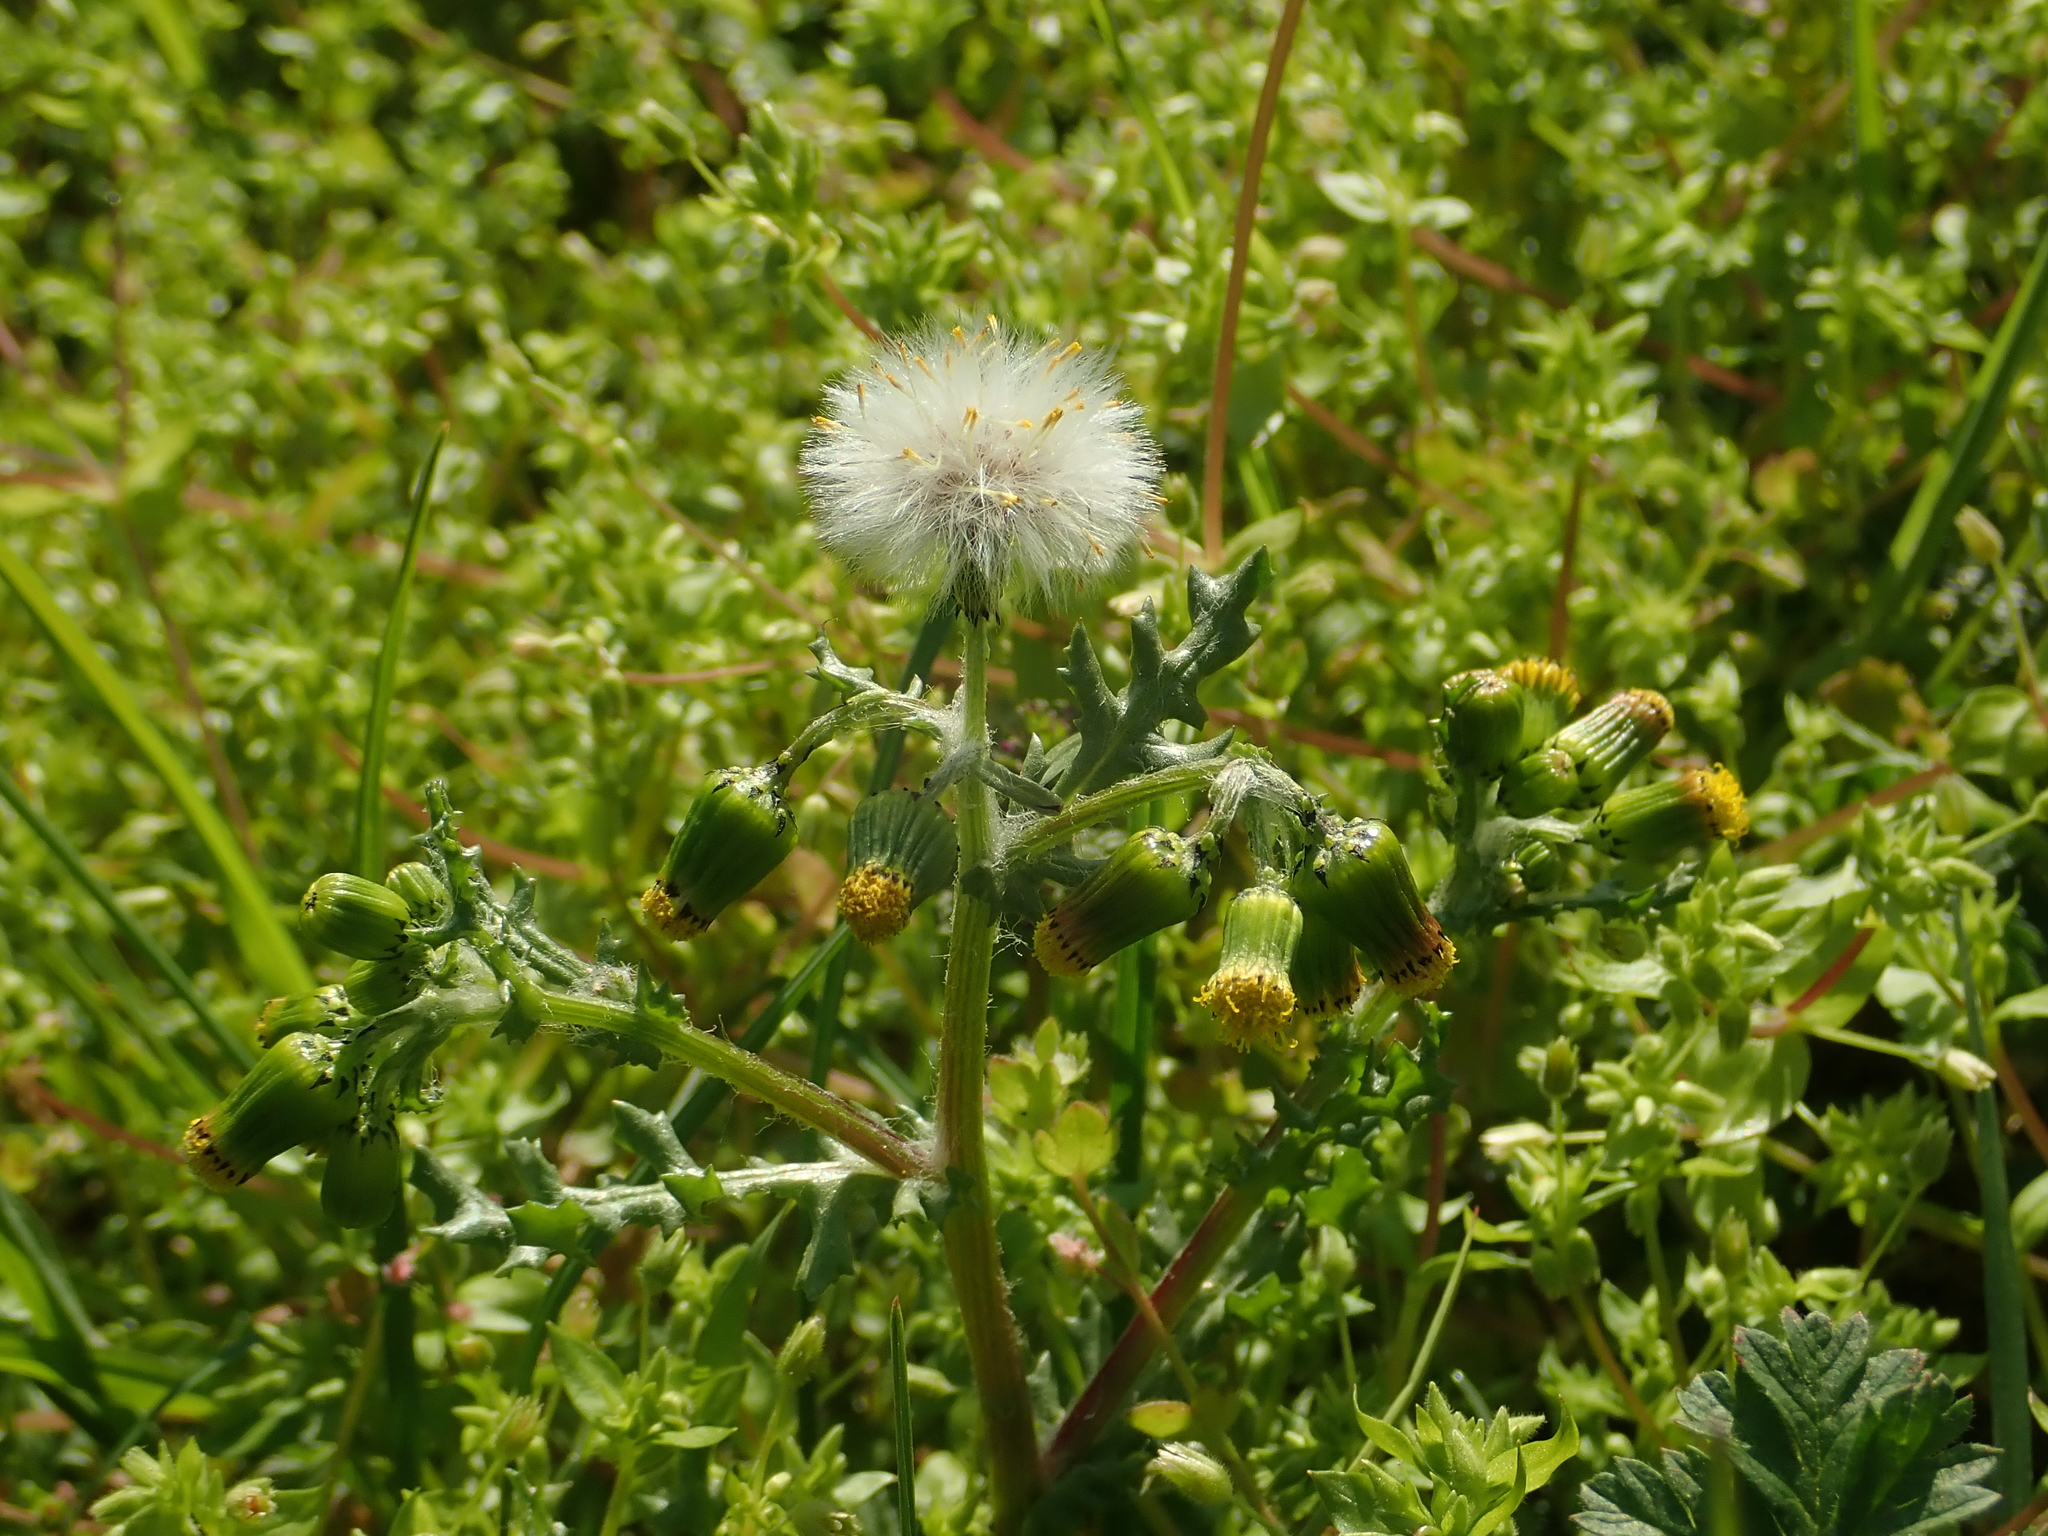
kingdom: Plantae
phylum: Tracheophyta
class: Magnoliopsida
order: Asterales
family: Asteraceae
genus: Senecio
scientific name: Senecio vulgaris
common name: Old-man-in-the-spring
